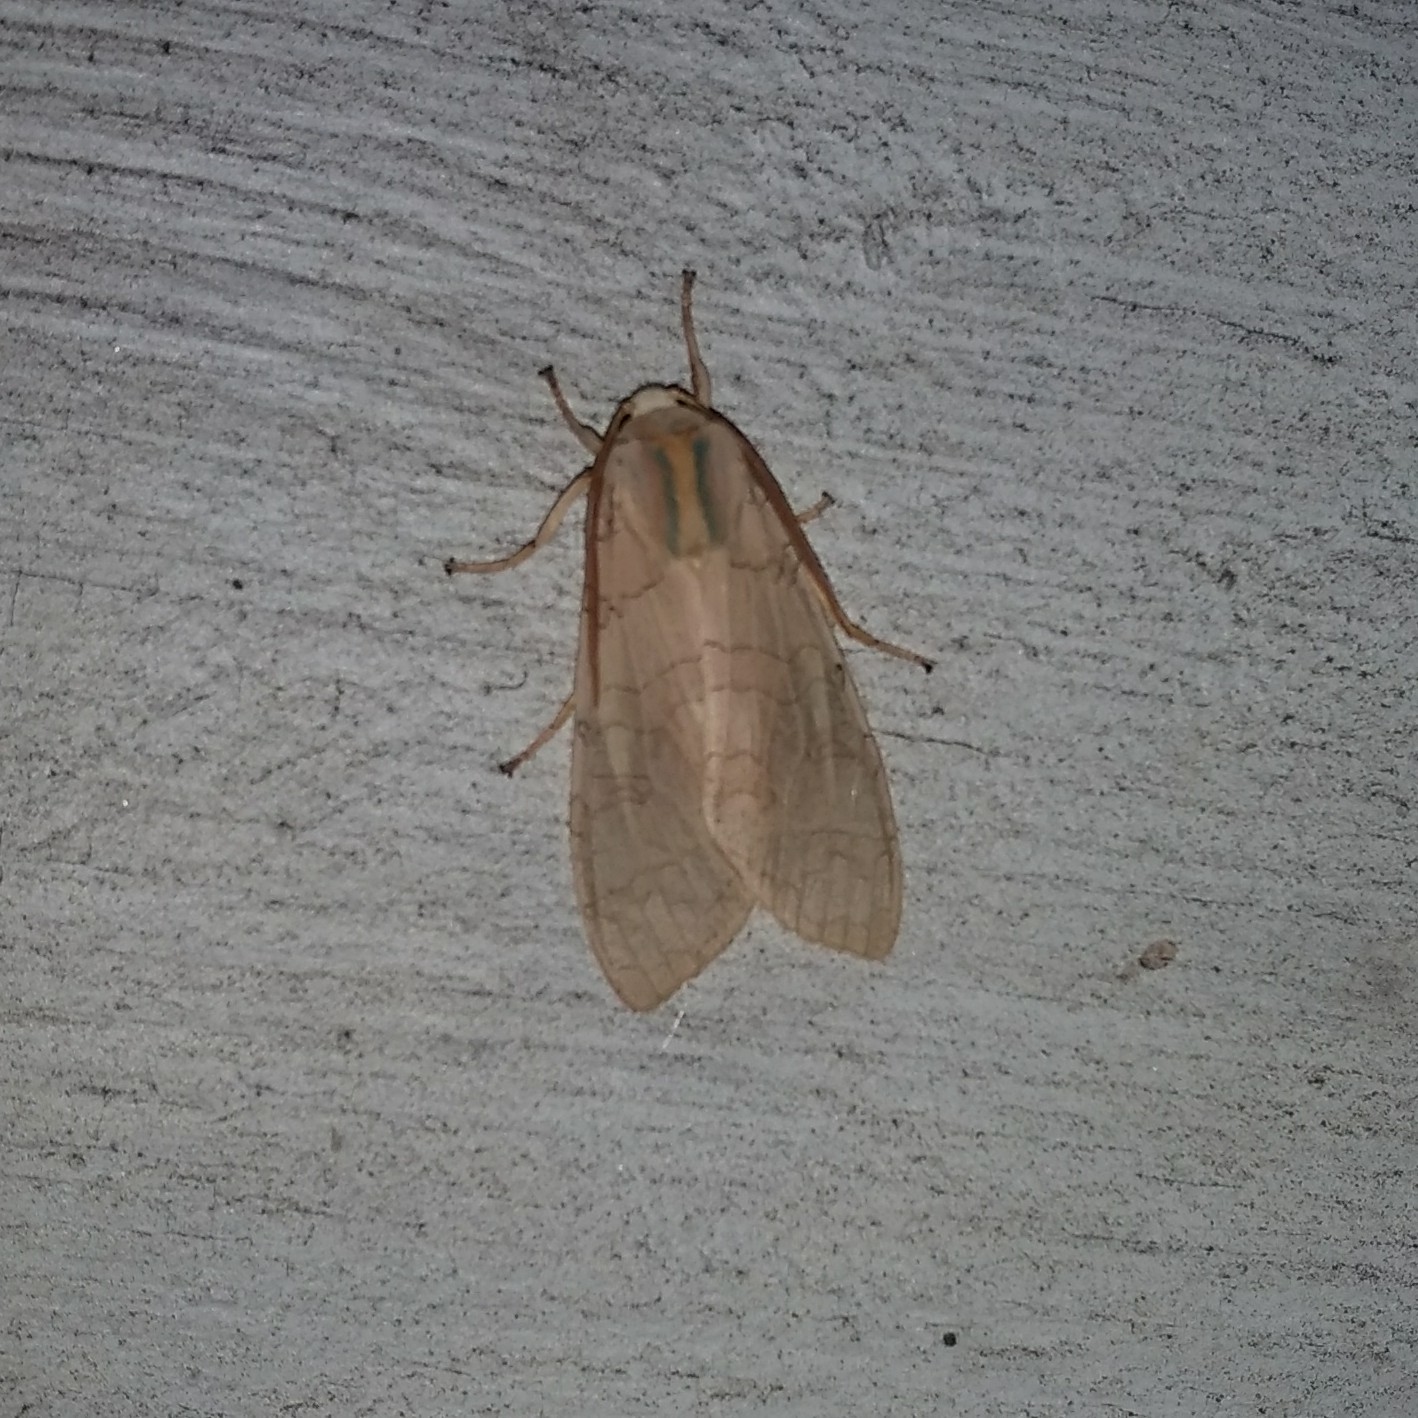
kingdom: Animalia
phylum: Arthropoda
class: Insecta
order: Lepidoptera
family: Erebidae
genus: Halysidota
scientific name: Halysidota
